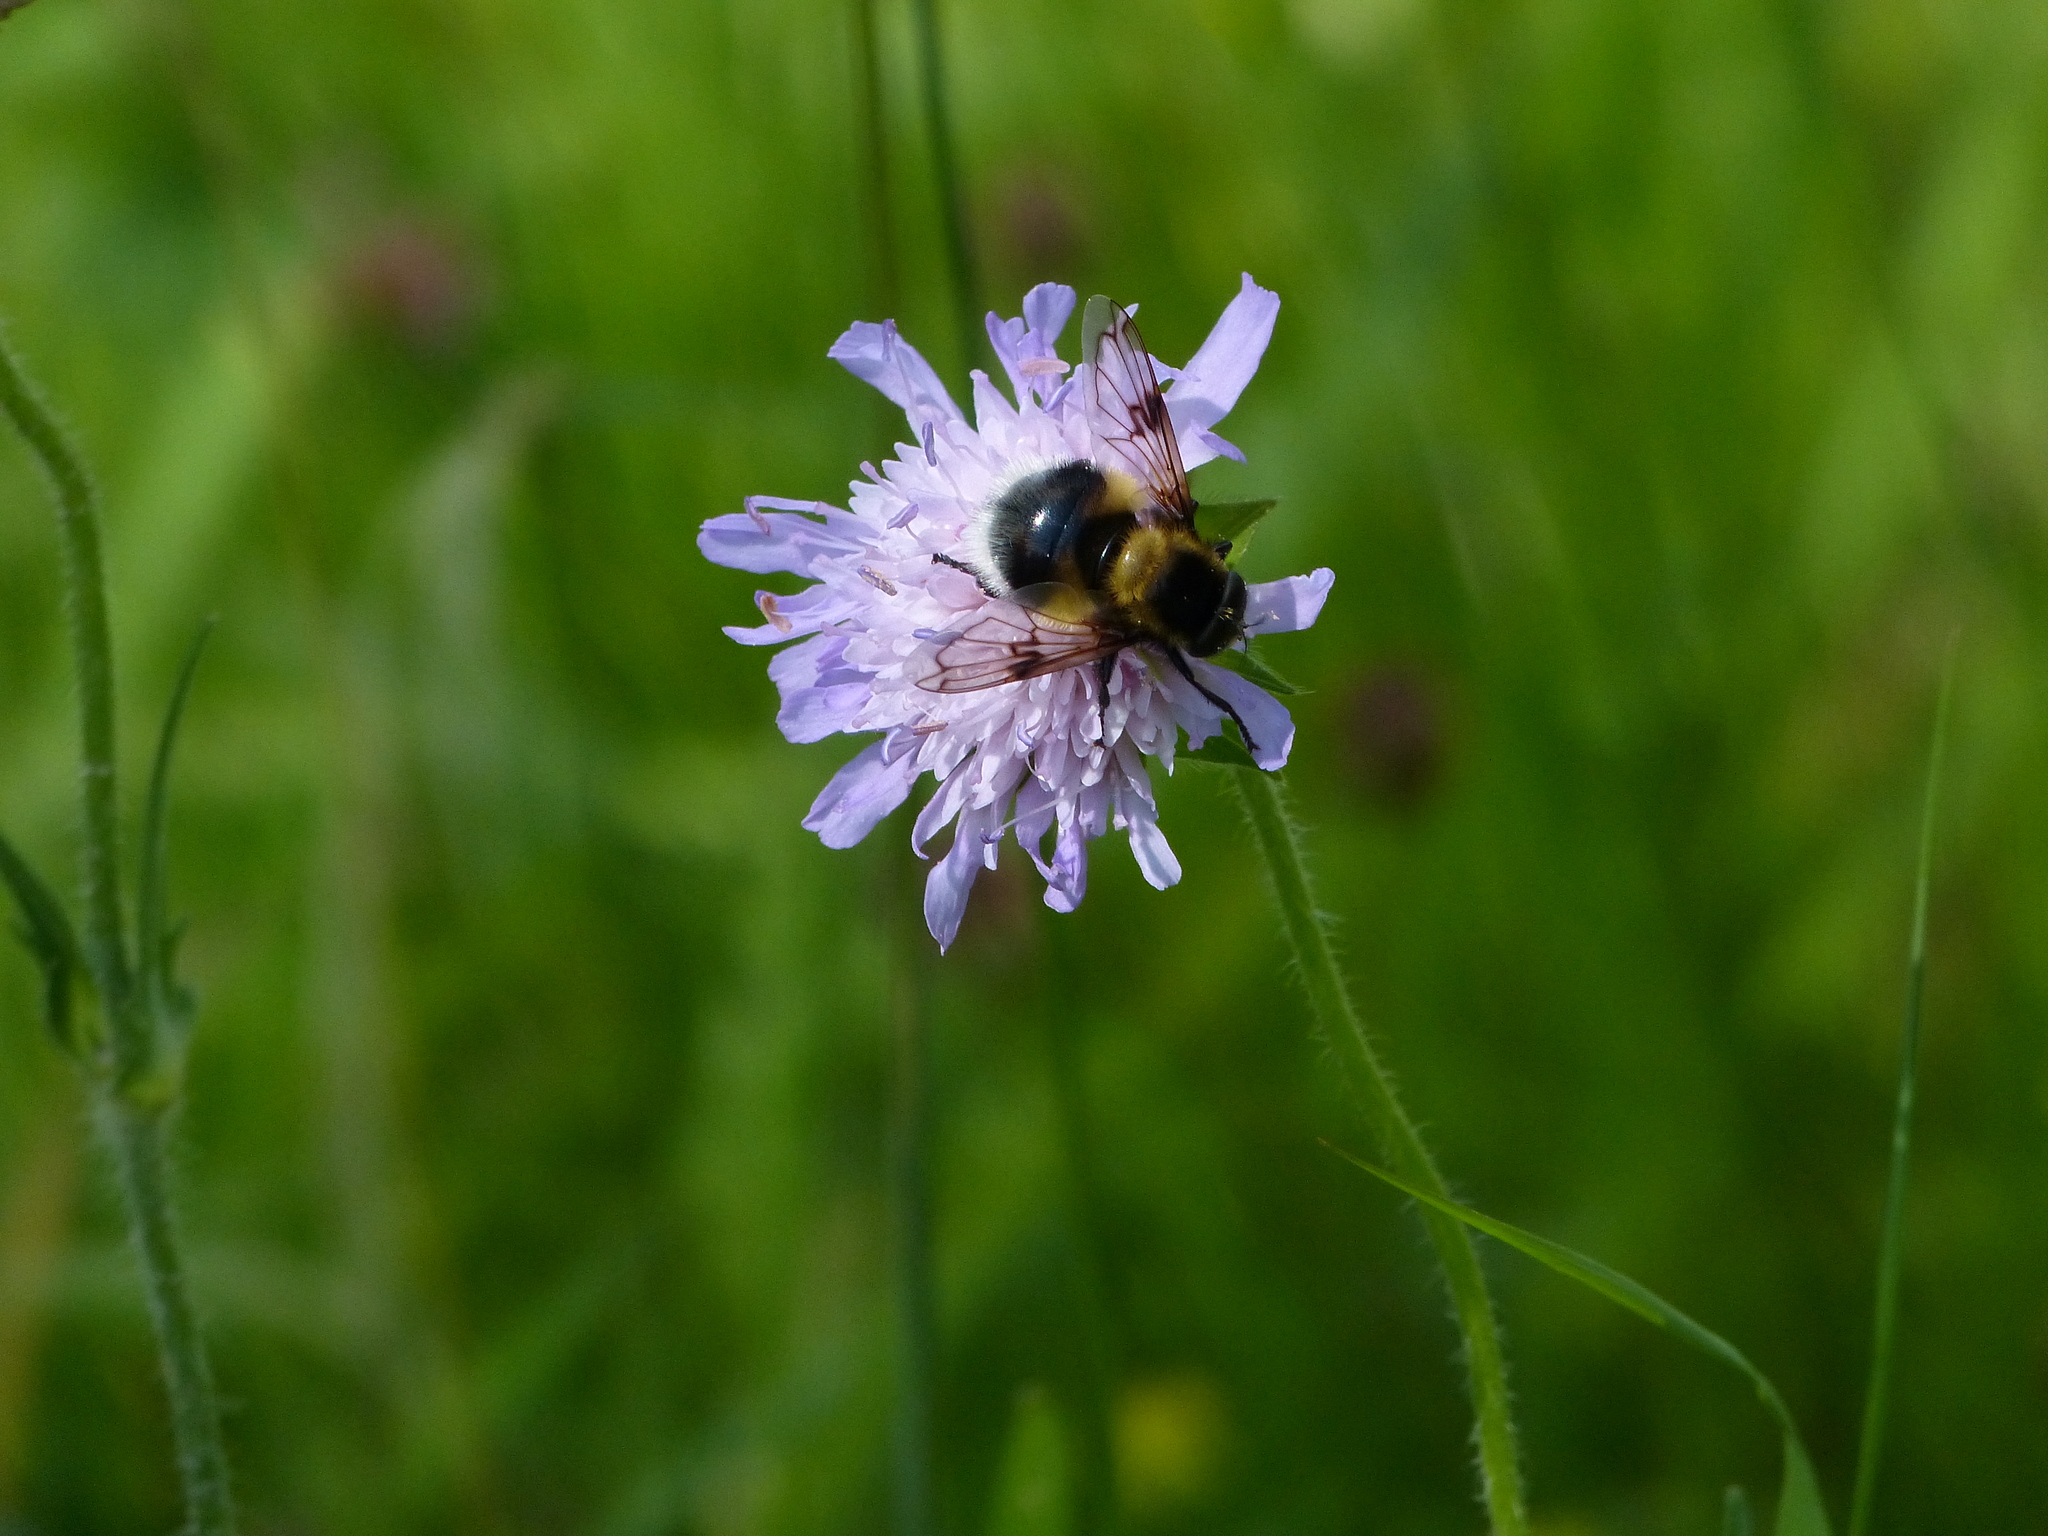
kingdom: Animalia
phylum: Arthropoda
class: Insecta
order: Diptera
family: Syrphidae
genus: Volucella
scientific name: Volucella bombylans
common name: Bumble bee hover fly
